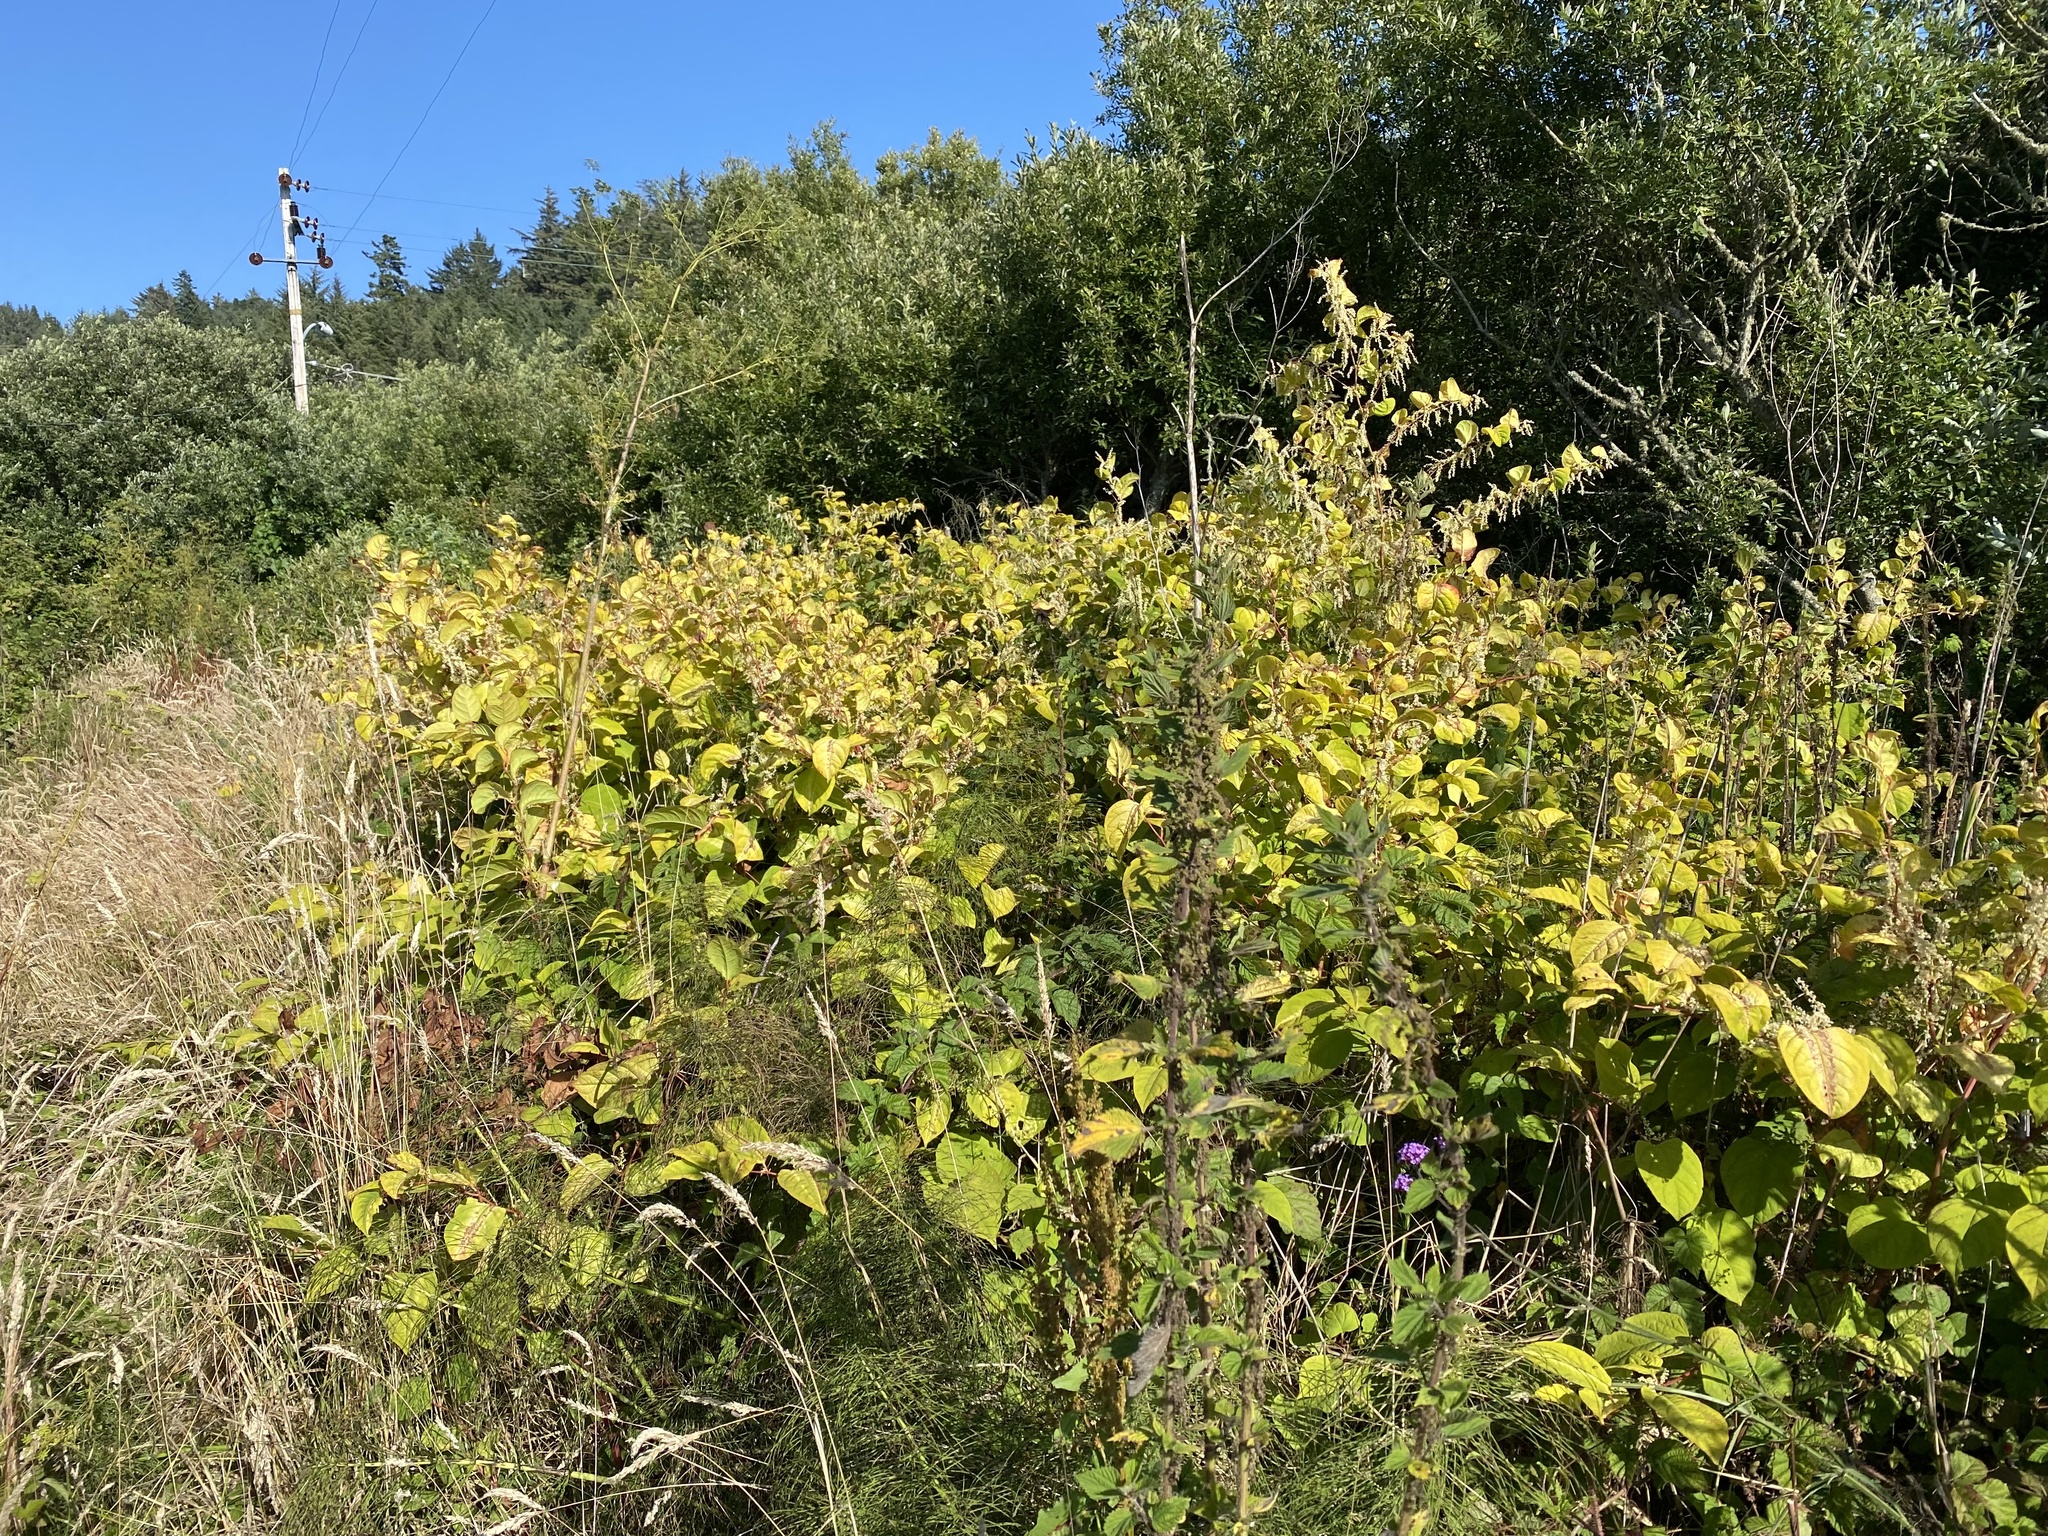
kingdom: Plantae
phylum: Tracheophyta
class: Magnoliopsida
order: Caryophyllales
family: Polygonaceae
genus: Reynoutria
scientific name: Reynoutria japonica
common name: Japanese knotweed
